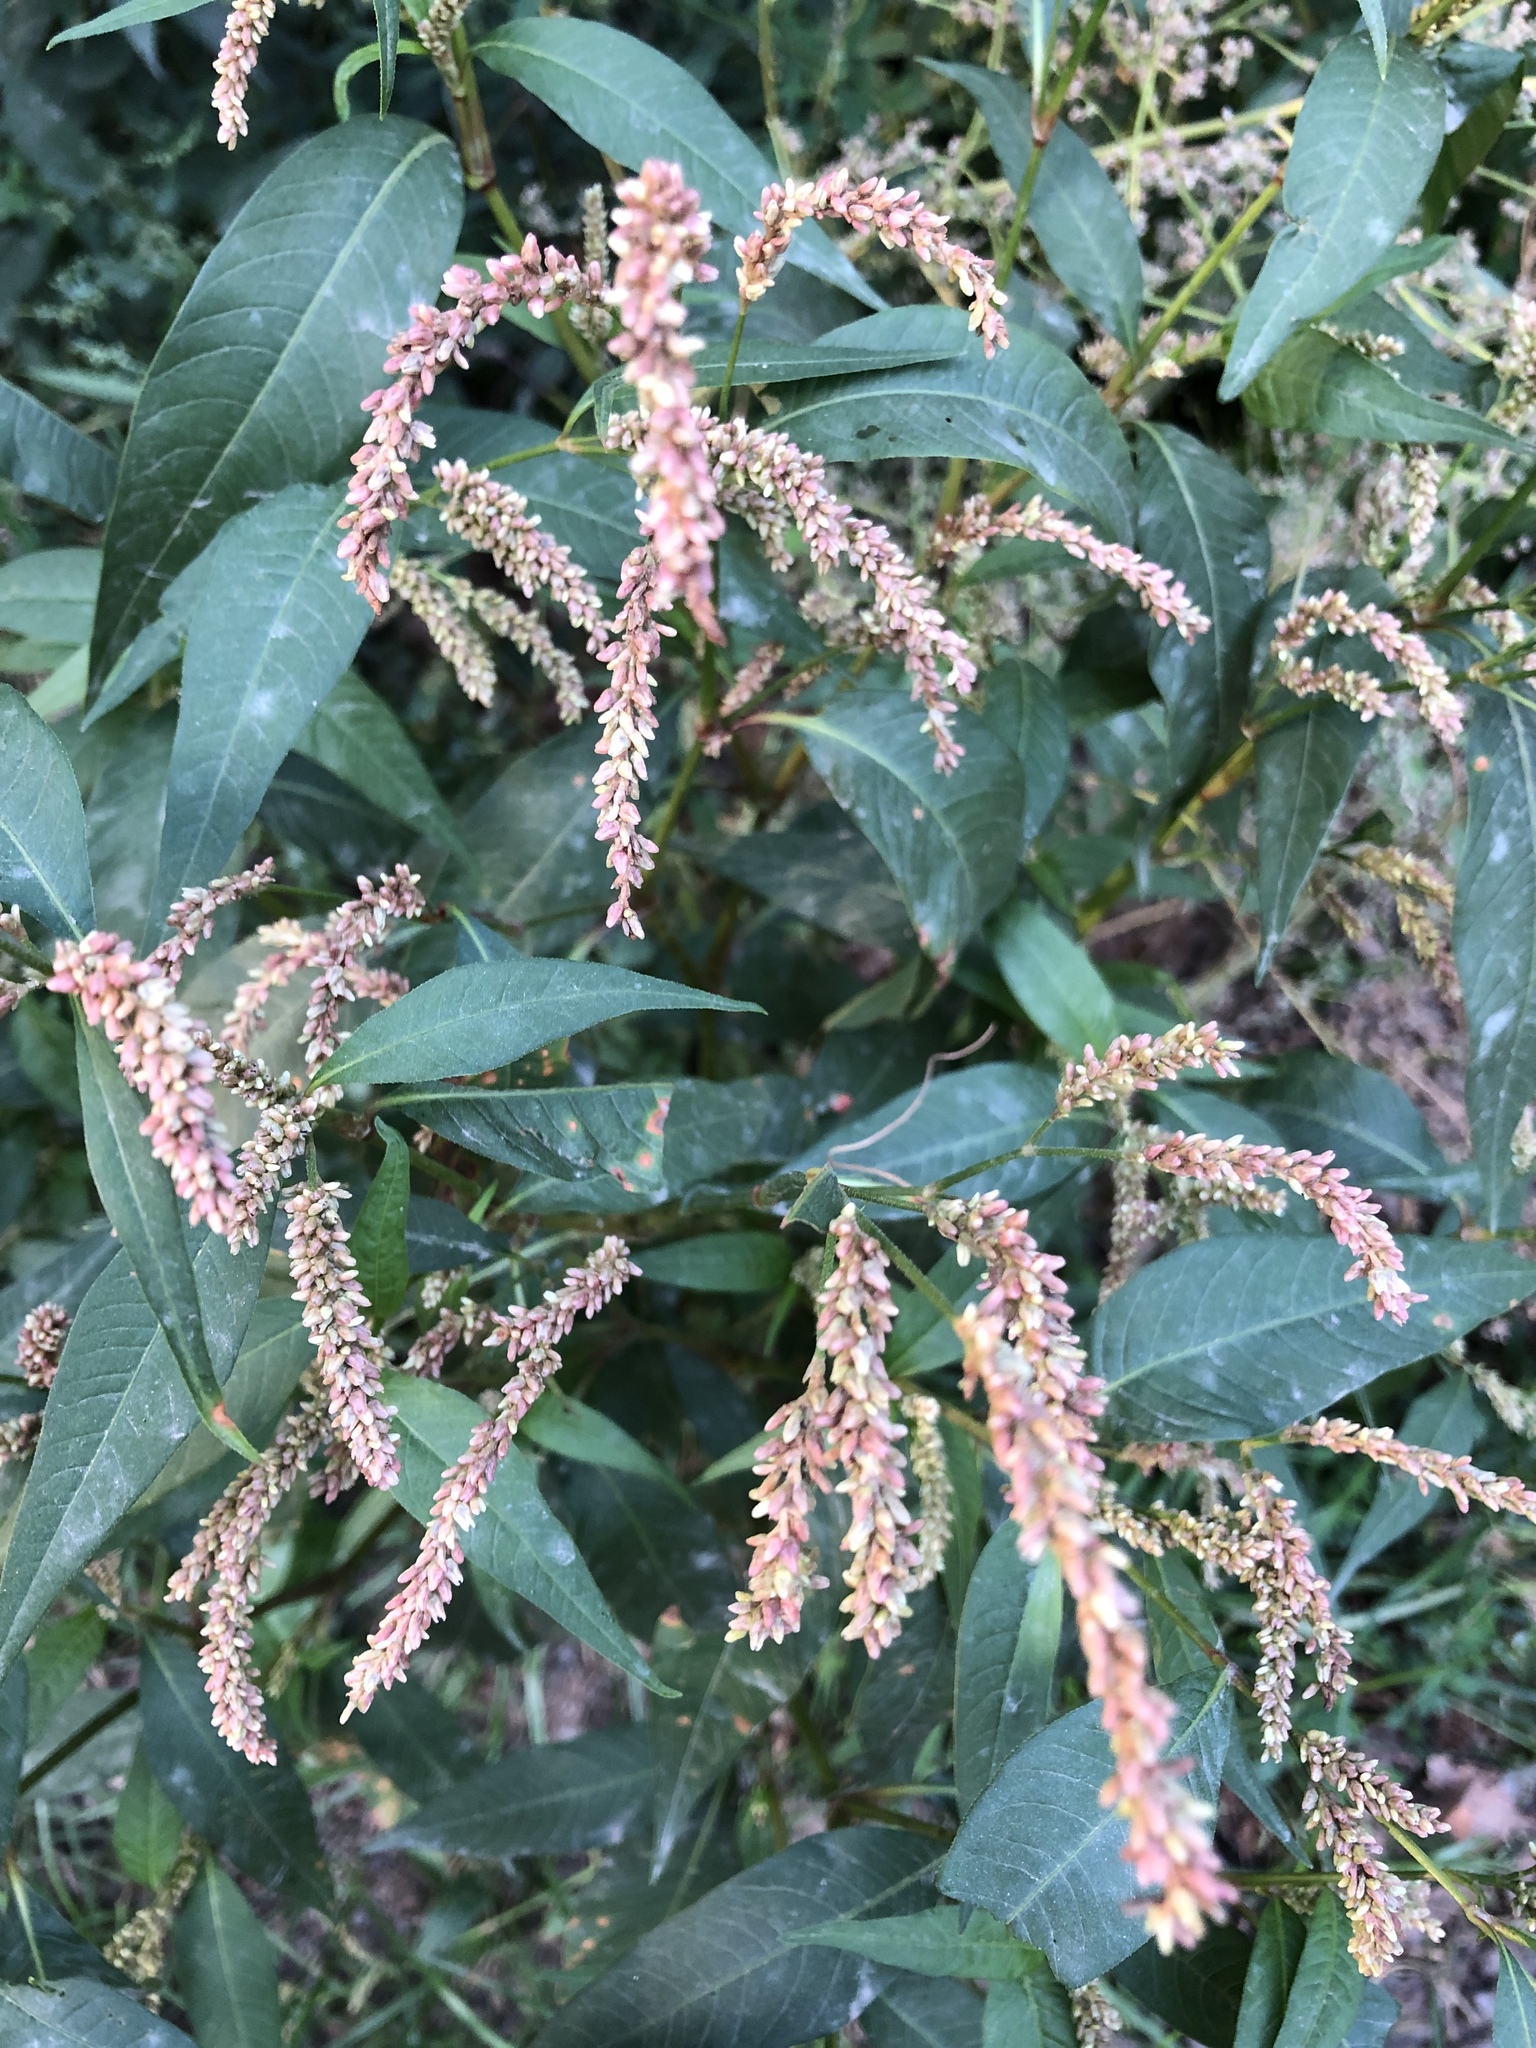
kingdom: Plantae
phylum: Tracheophyta
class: Magnoliopsida
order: Caryophyllales
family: Polygonaceae
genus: Persicaria
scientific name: Persicaria lapathifolia
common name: Curlytop knotweed
